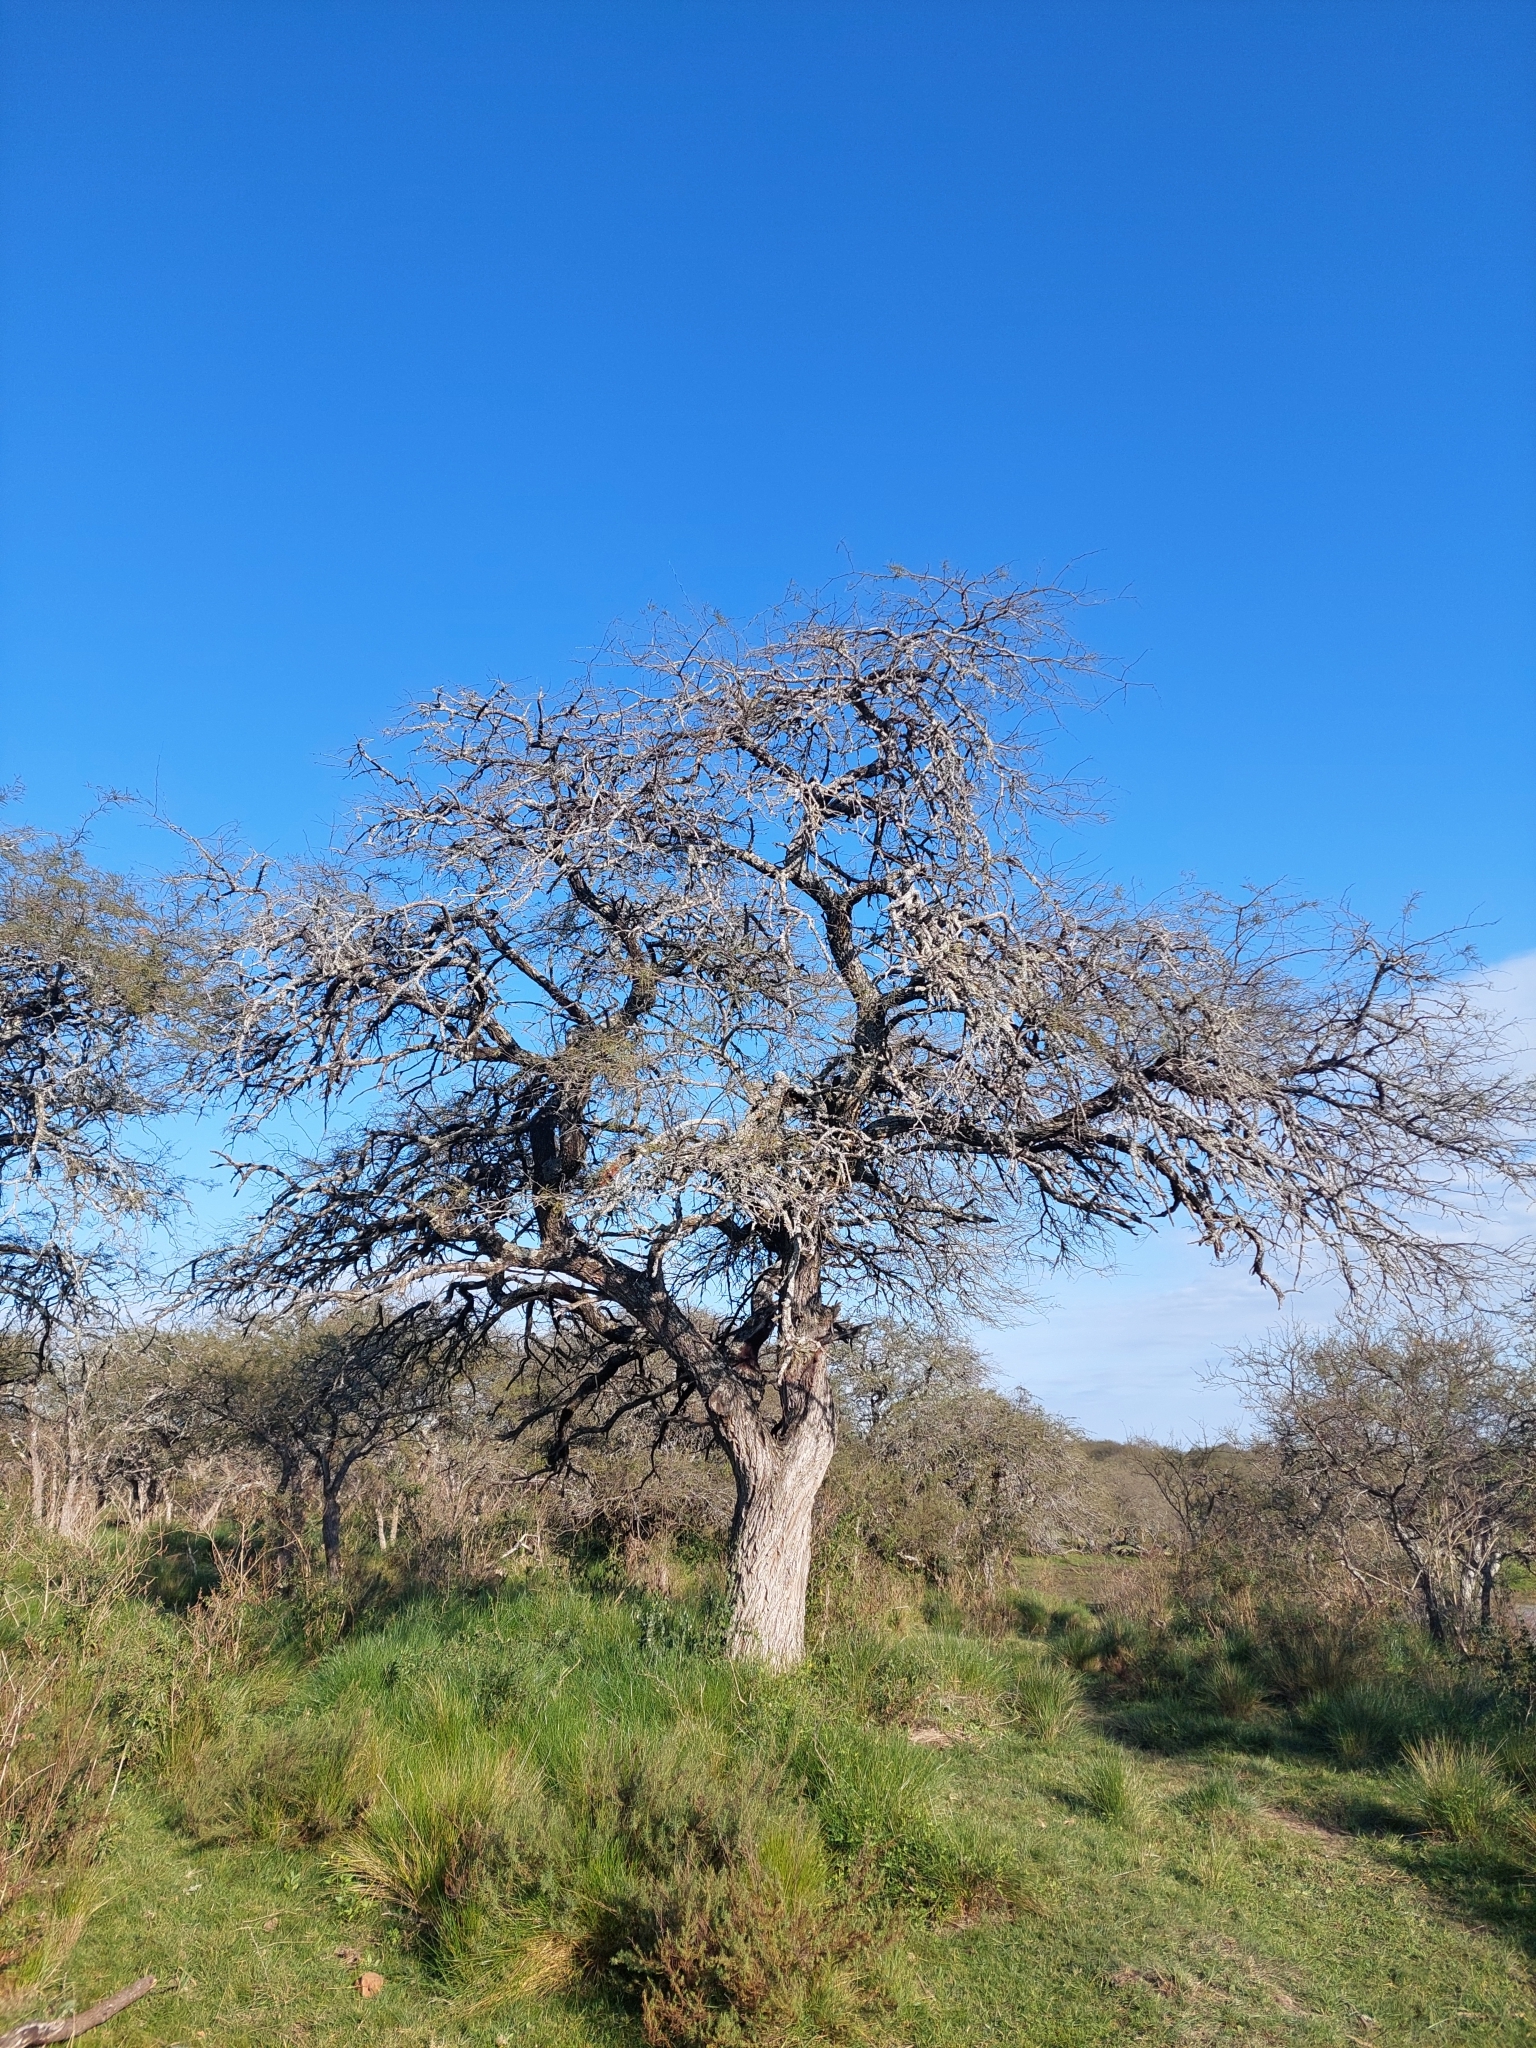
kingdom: Plantae
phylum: Tracheophyta
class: Magnoliopsida
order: Fabales
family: Fabaceae
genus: Prosopis
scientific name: Prosopis affinis
